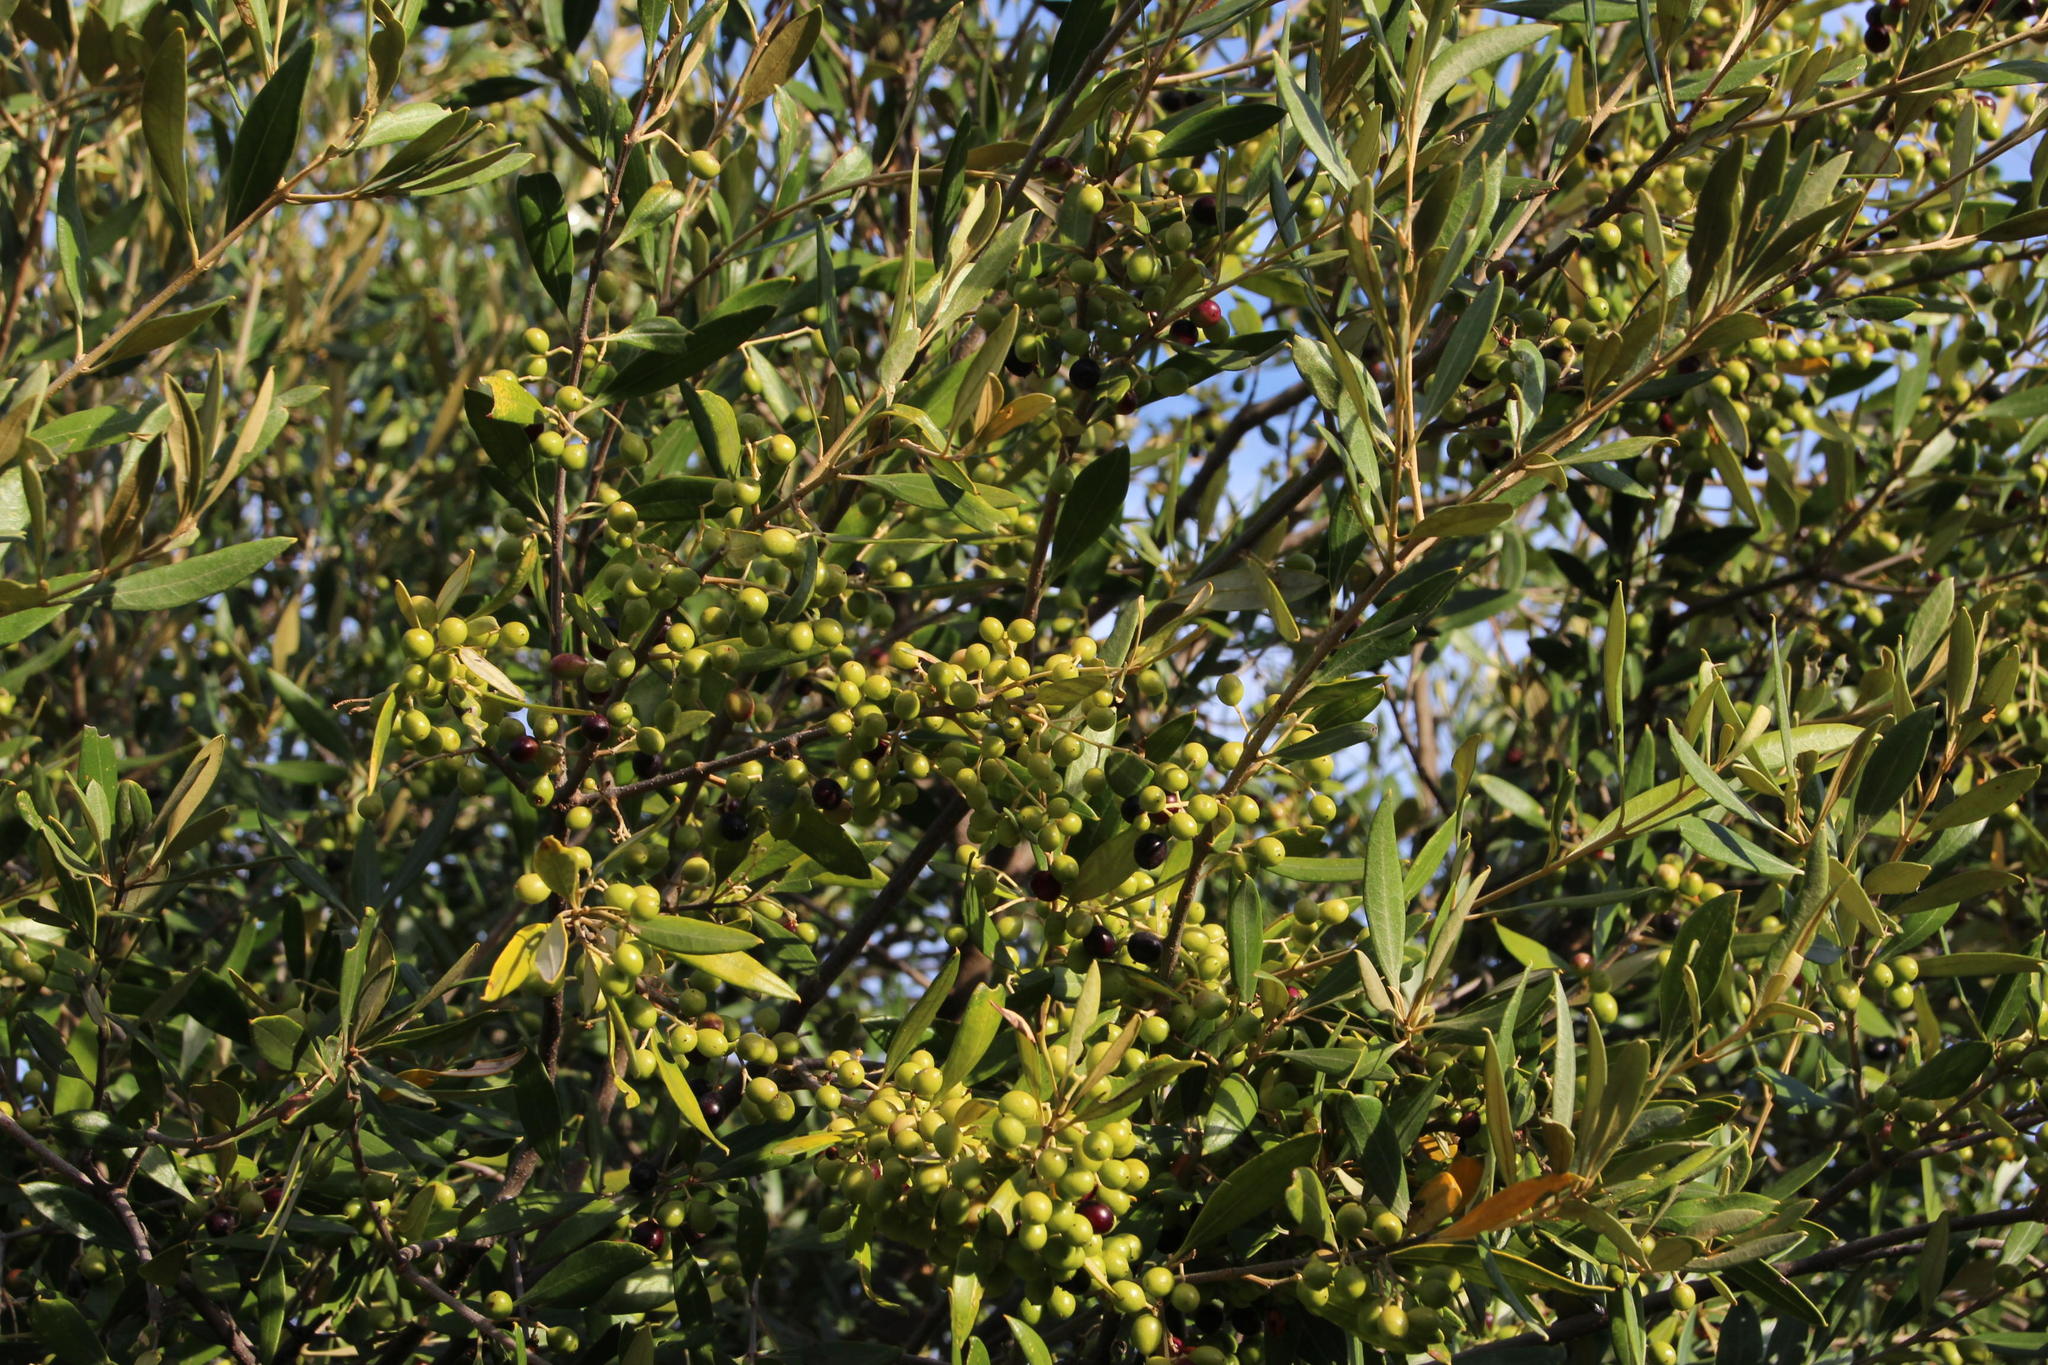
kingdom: Plantae
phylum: Tracheophyta
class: Magnoliopsida
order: Lamiales
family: Oleaceae
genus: Olea
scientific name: Olea europaea
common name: Olive
